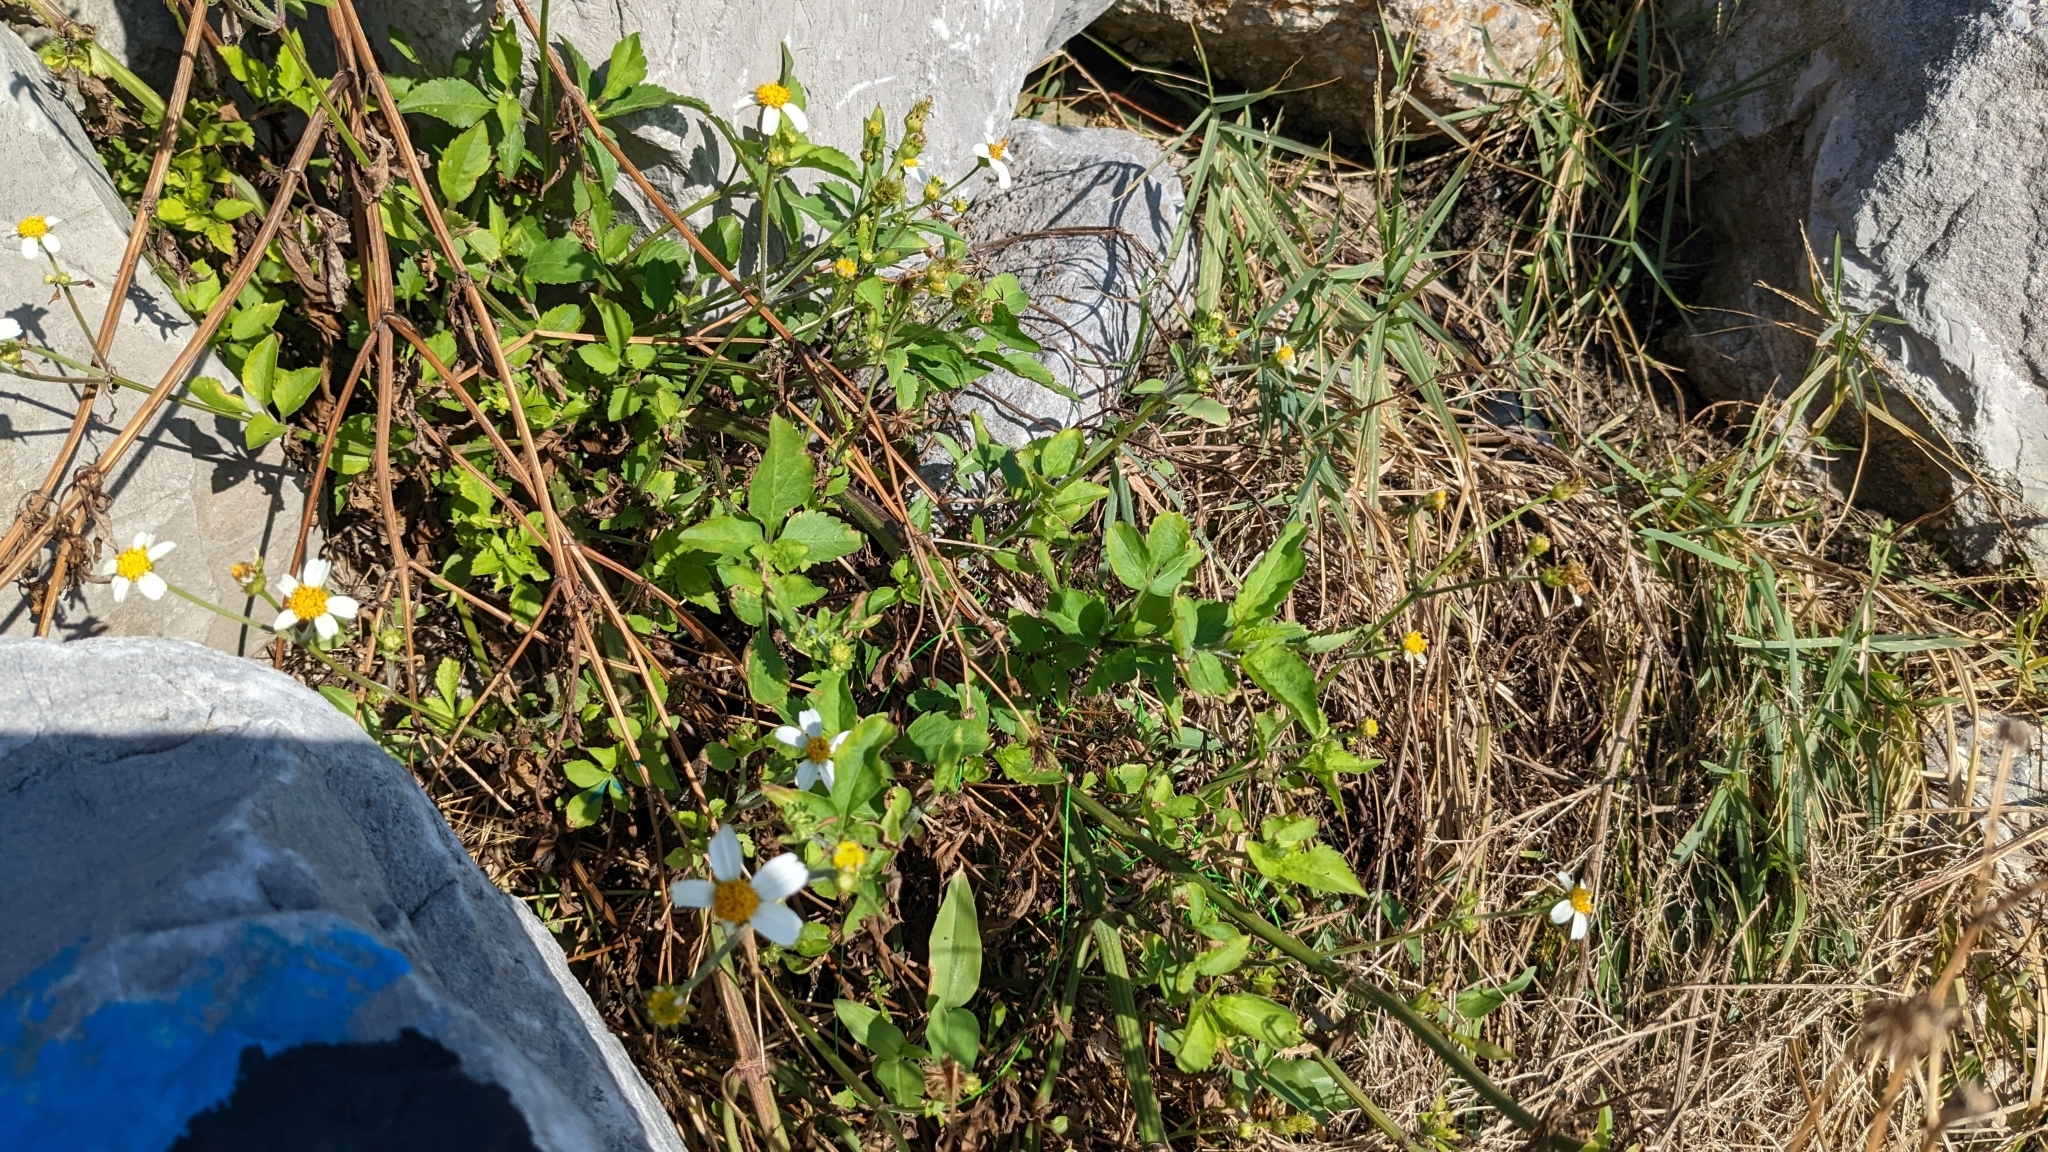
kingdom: Plantae
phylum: Tracheophyta
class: Magnoliopsida
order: Asterales
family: Asteraceae
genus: Bidens
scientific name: Bidens alba
